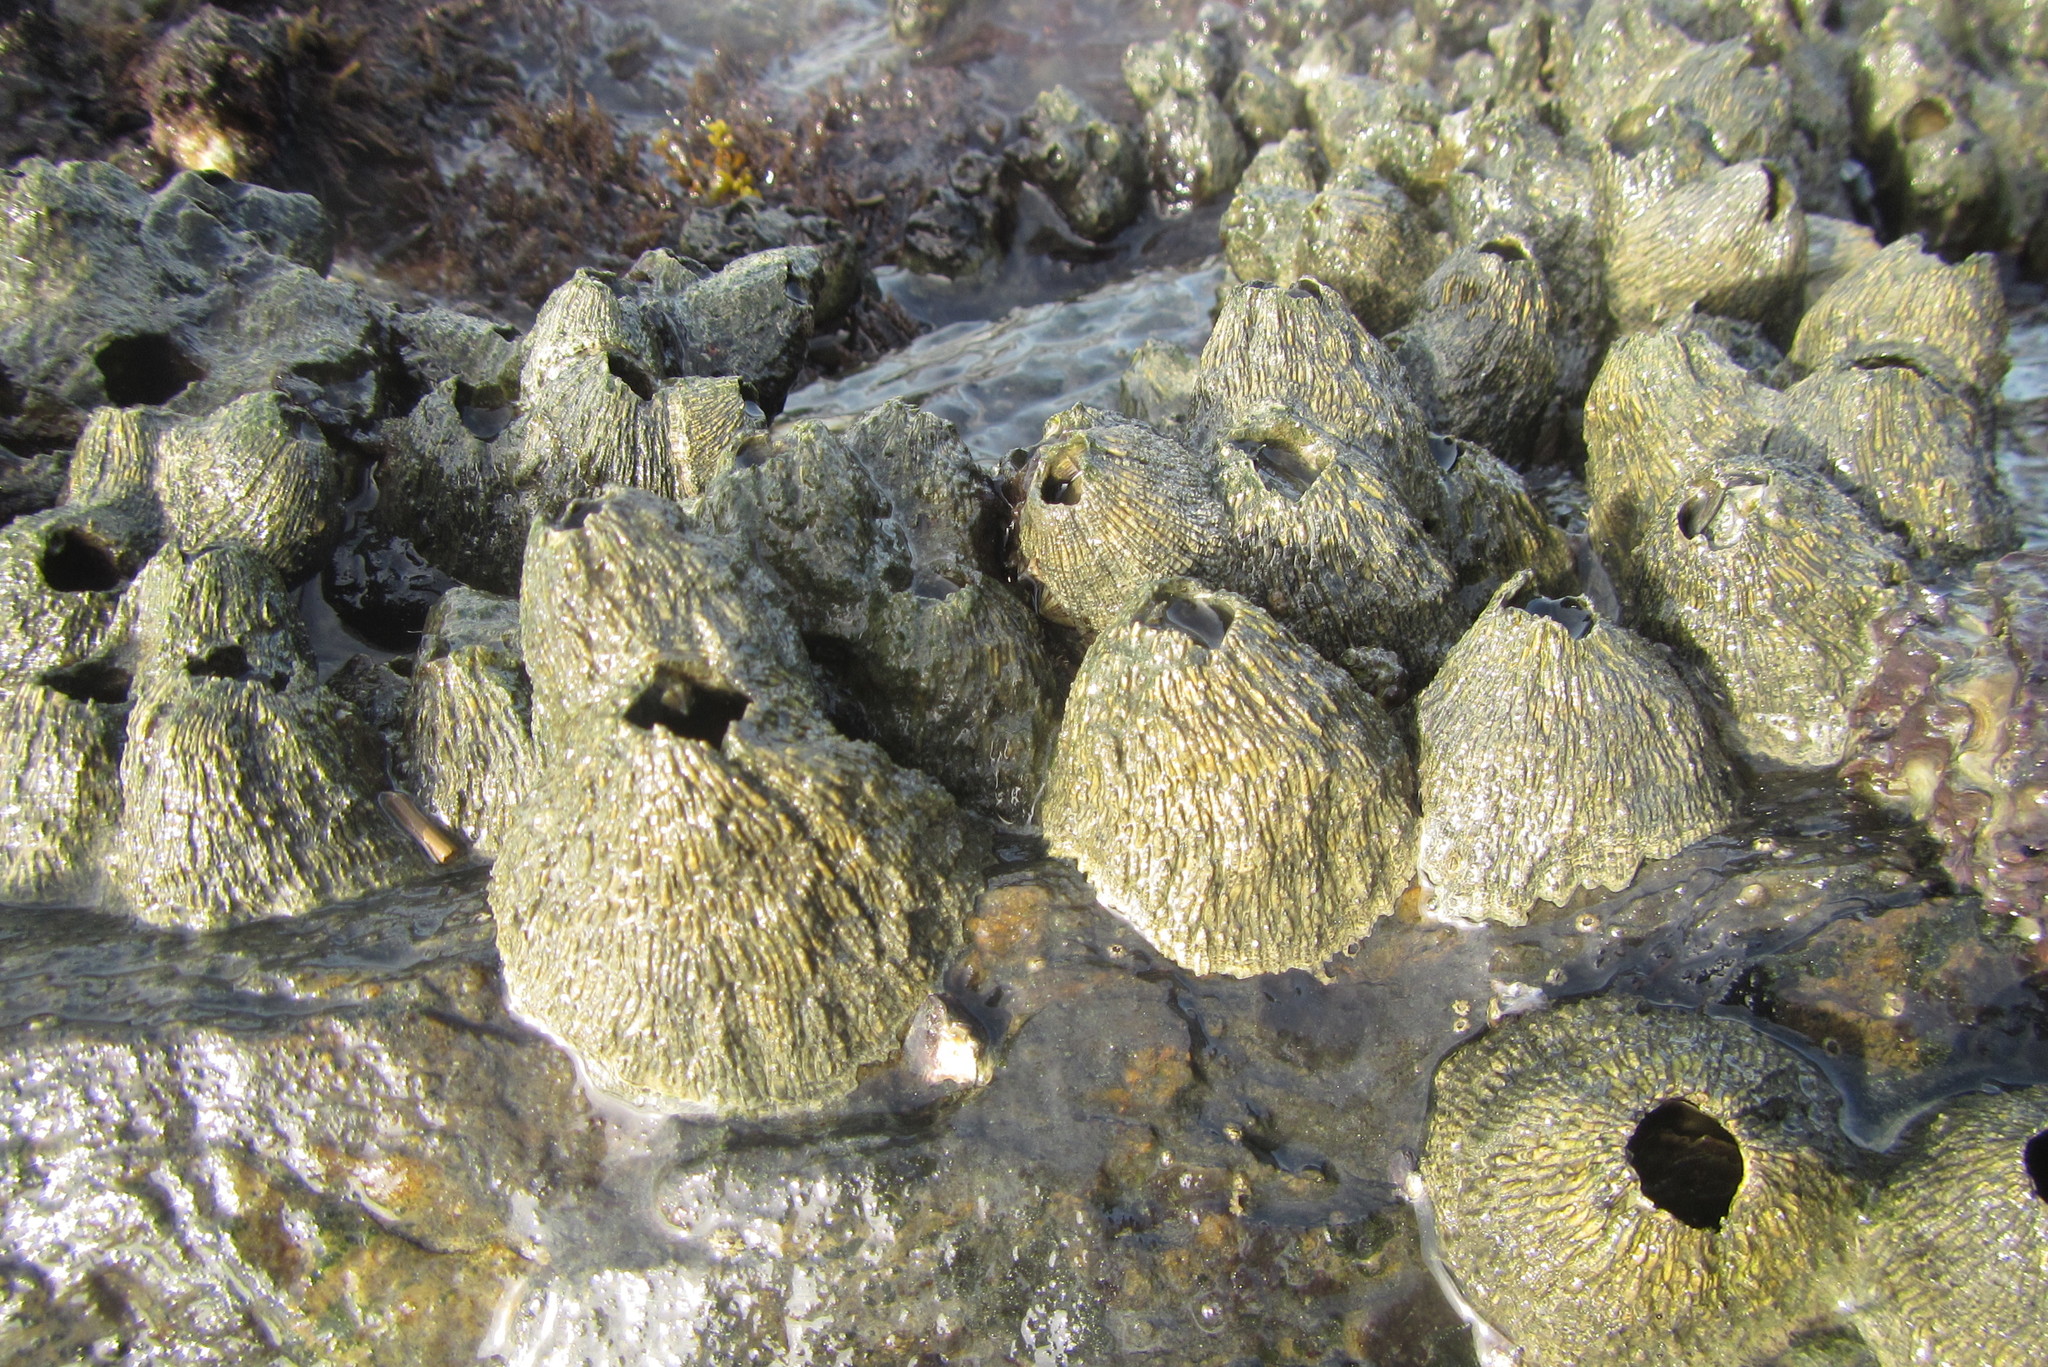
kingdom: Animalia
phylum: Arthropoda
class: Maxillopoda
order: Sessilia
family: Tetraclitidae
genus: Tetraclita
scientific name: Tetraclita squamosa
